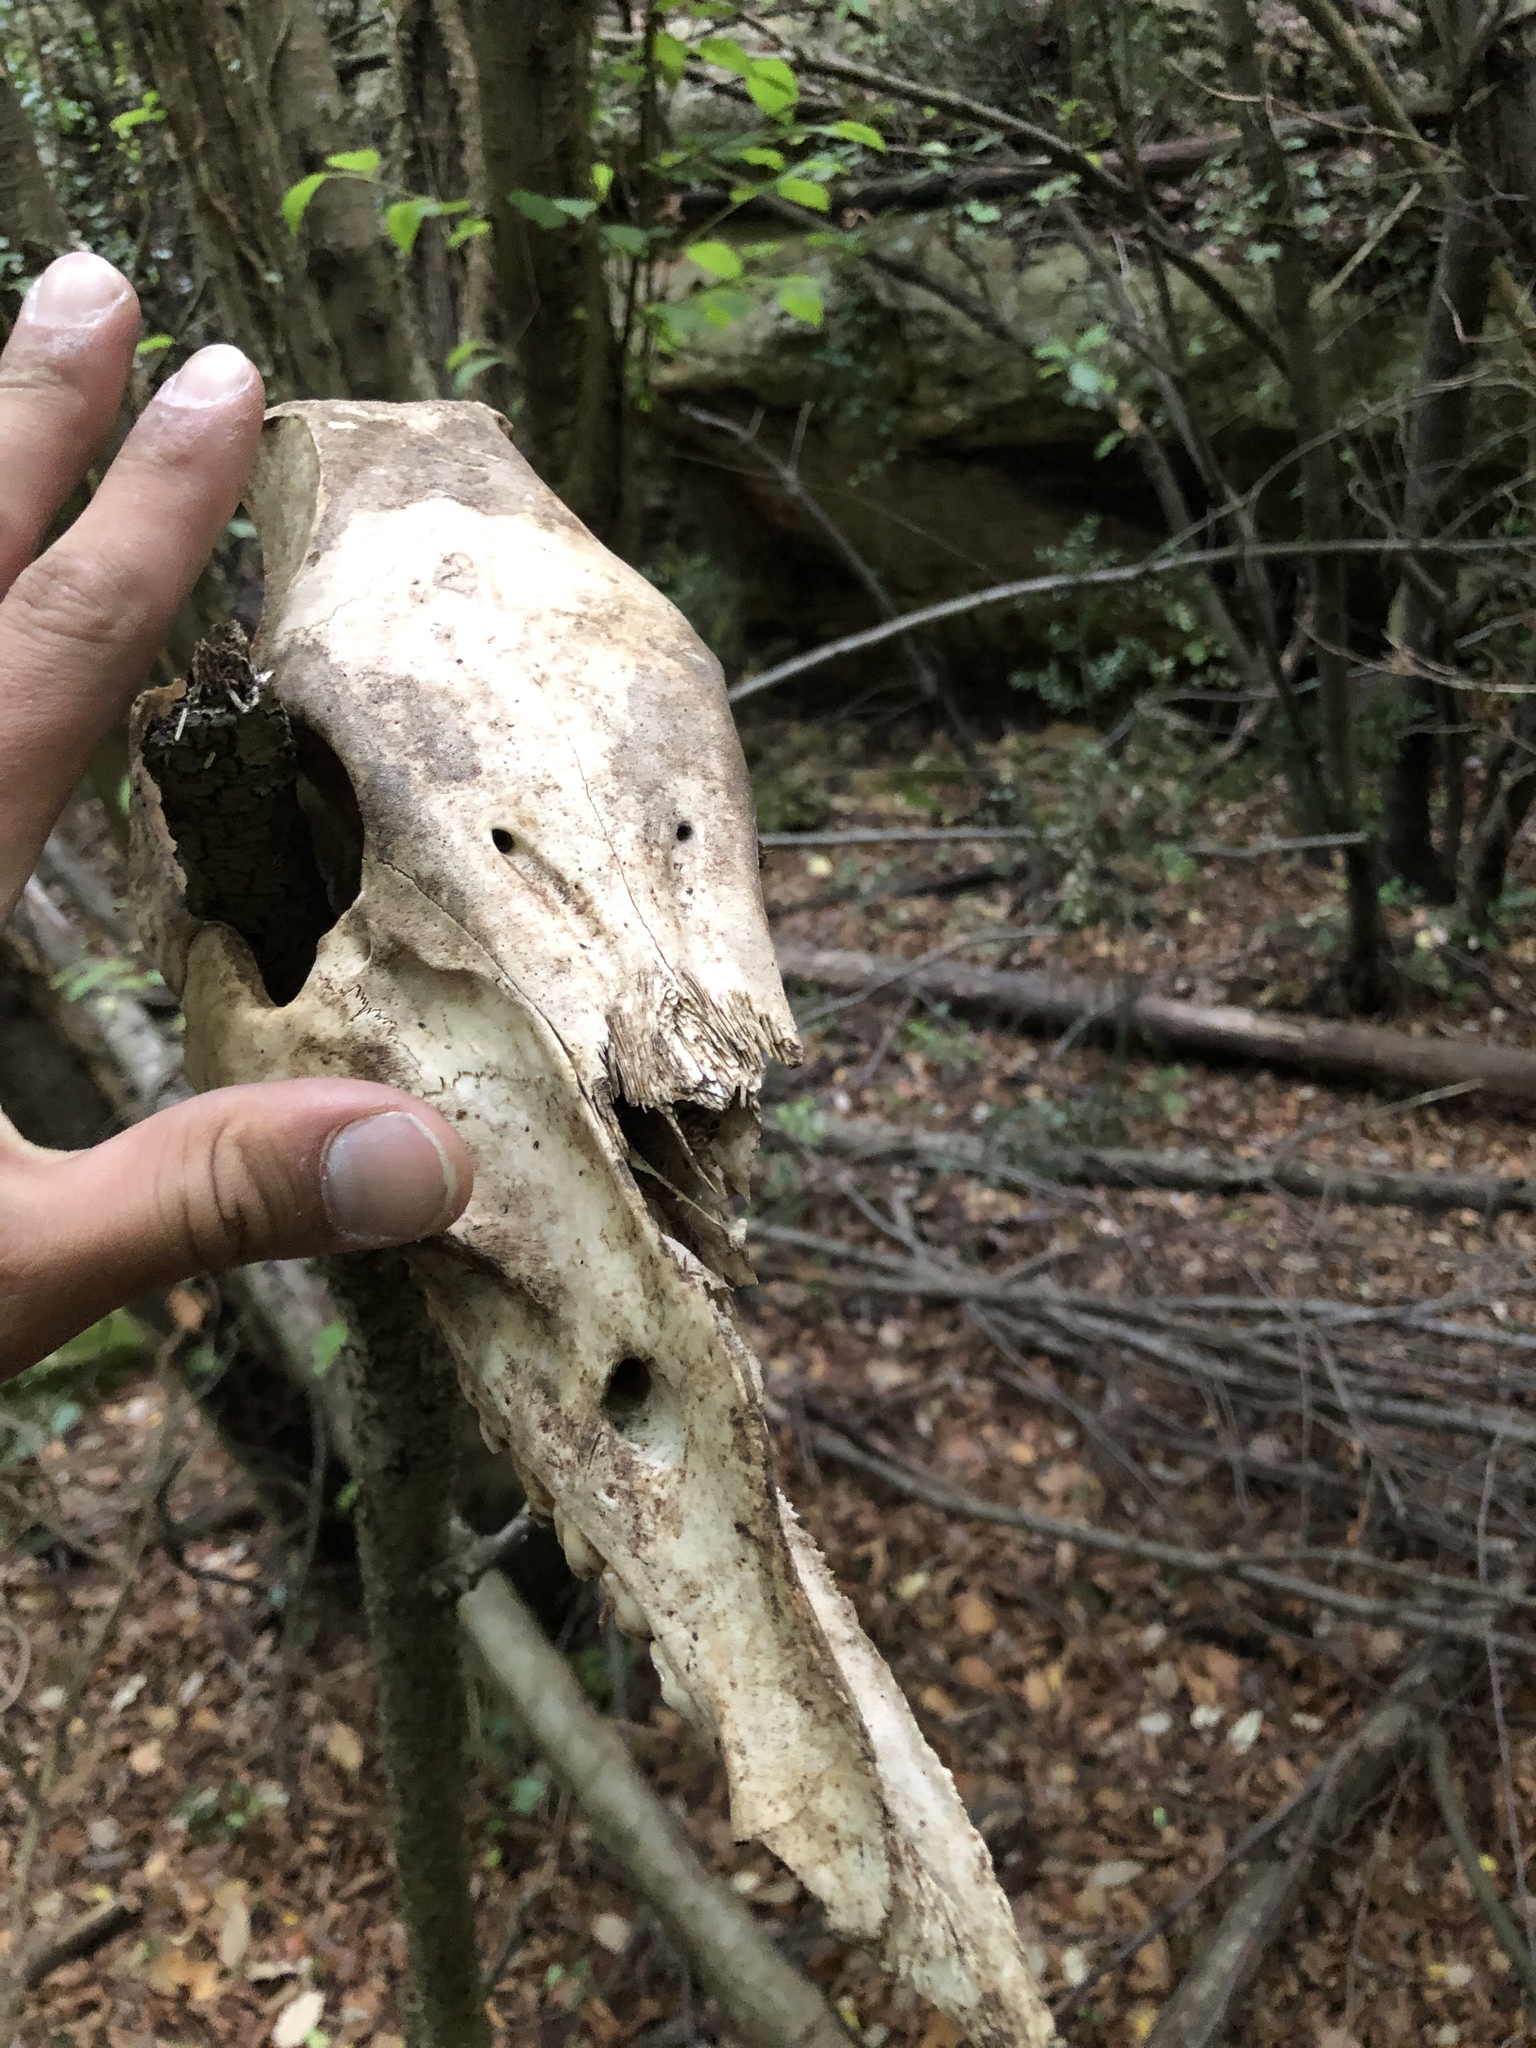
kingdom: Animalia
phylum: Chordata
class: Mammalia
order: Artiodactyla
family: Suidae
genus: Sus
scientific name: Sus scrofa
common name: Wild boar
